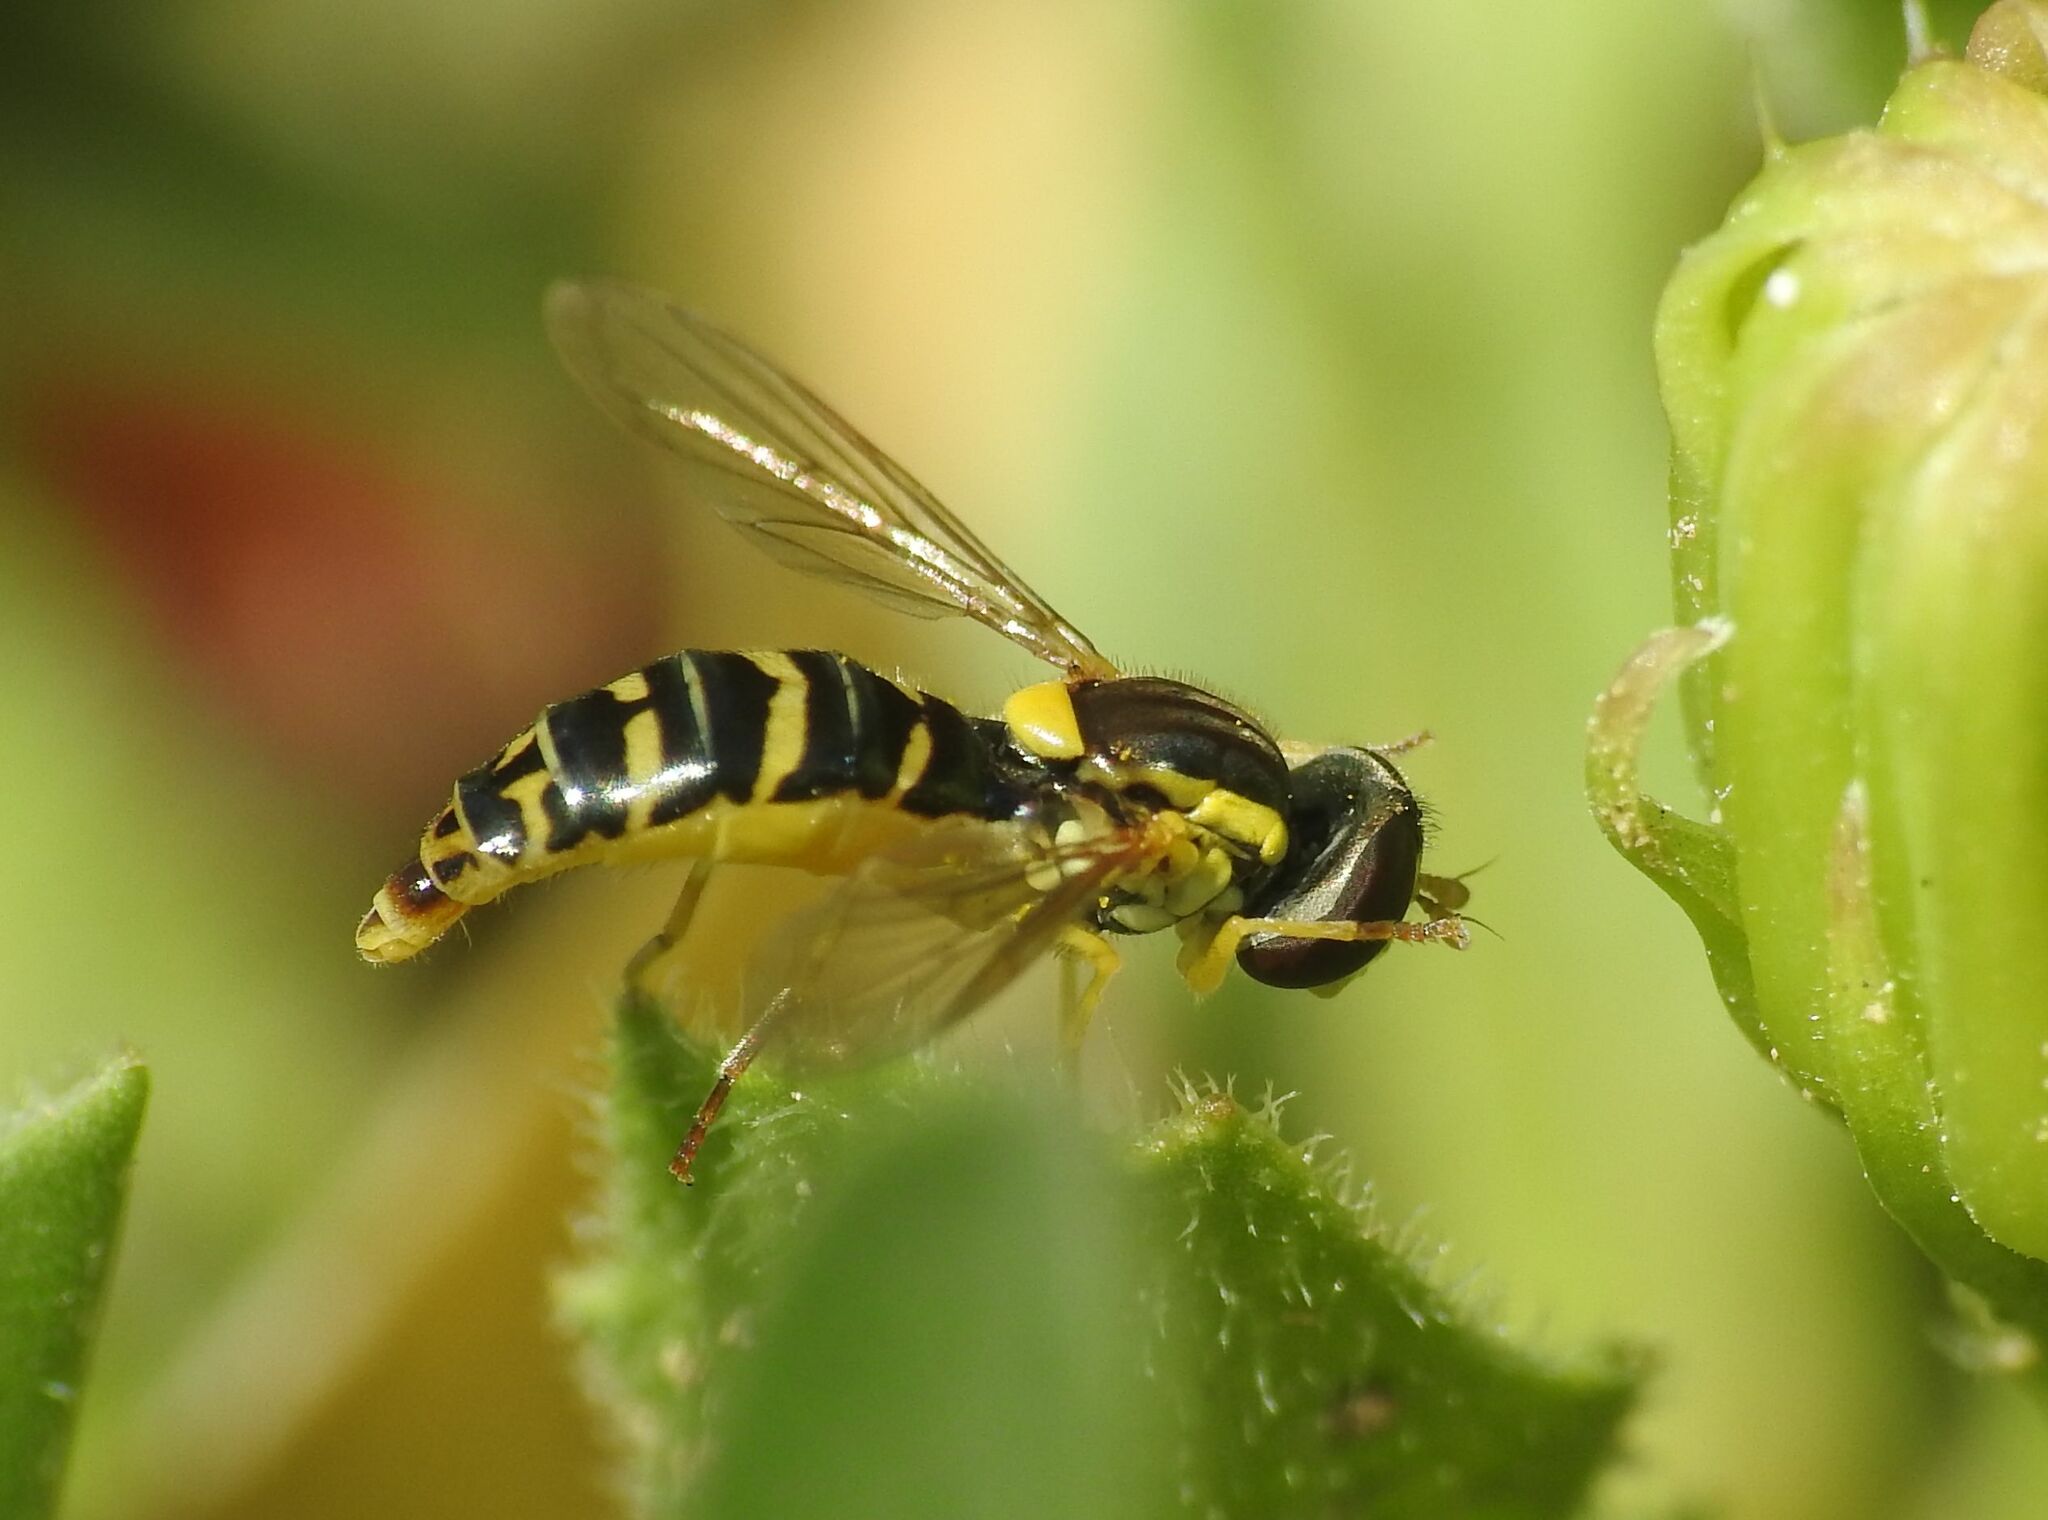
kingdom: Animalia
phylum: Arthropoda
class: Insecta
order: Diptera
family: Syrphidae
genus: Sphaerophoria
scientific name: Sphaerophoria
